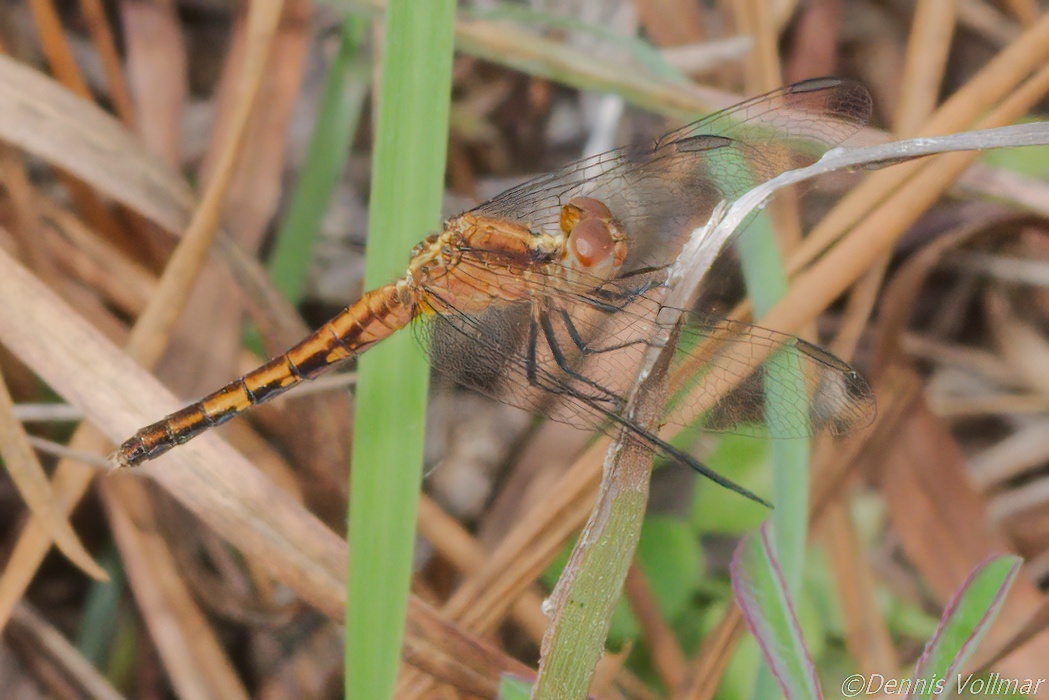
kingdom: Animalia
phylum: Arthropoda
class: Insecta
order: Odonata
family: Libellulidae
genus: Erythrodiplax
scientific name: Erythrodiplax minuscula
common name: Little blue dragonlet
